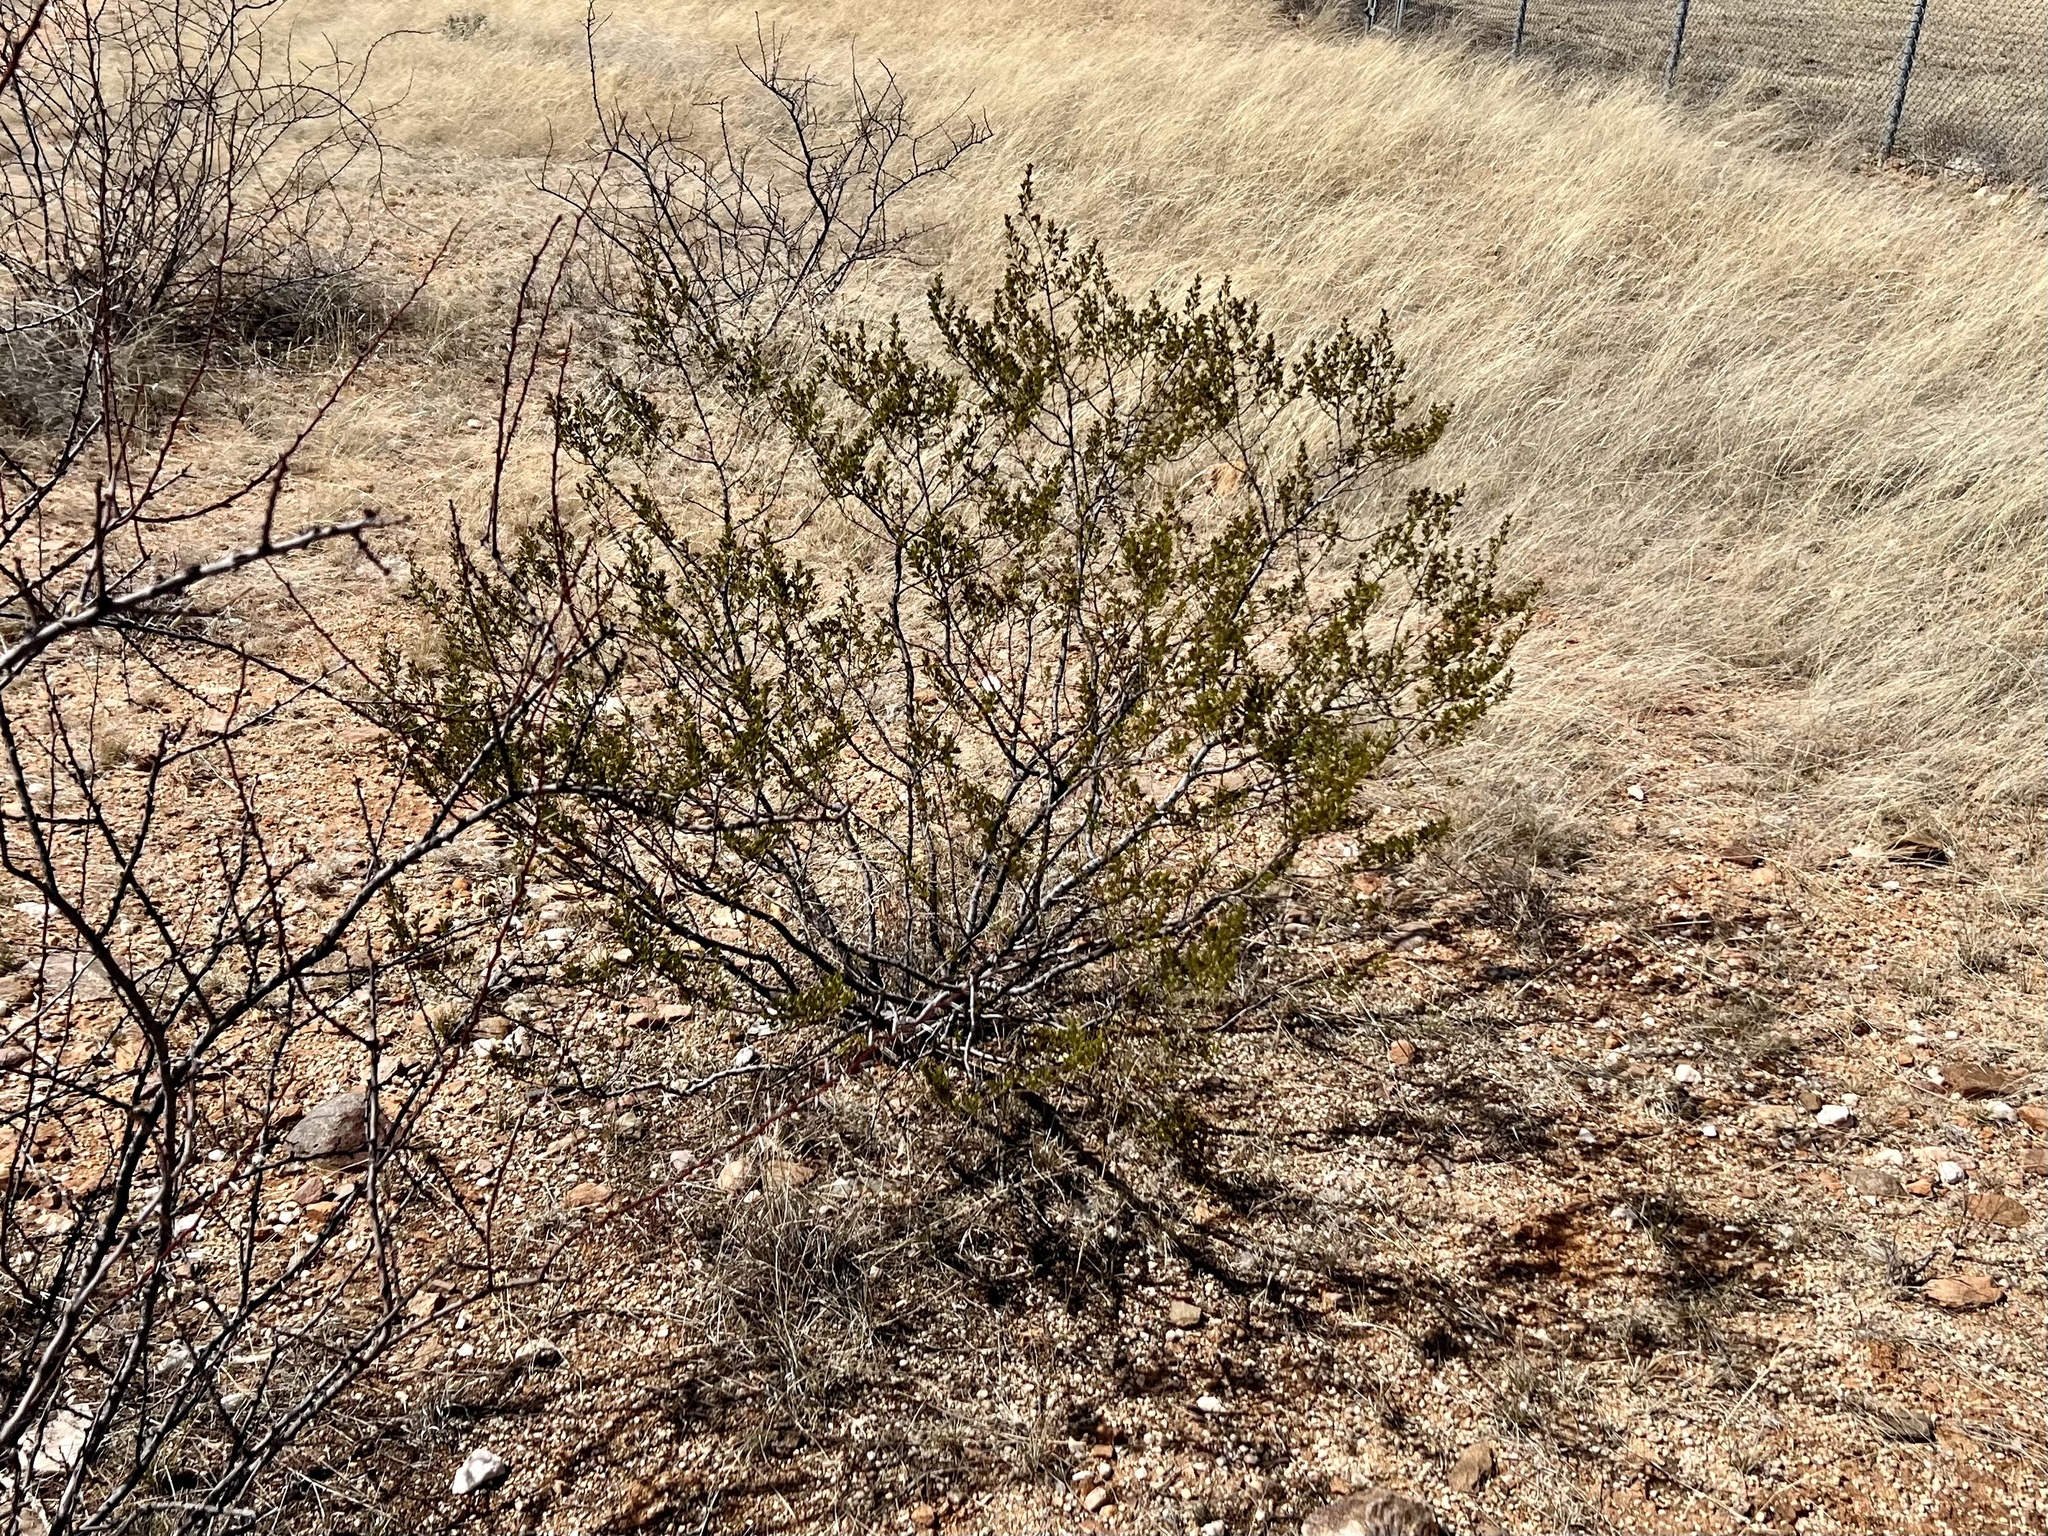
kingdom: Plantae
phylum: Tracheophyta
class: Magnoliopsida
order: Zygophyllales
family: Zygophyllaceae
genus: Larrea
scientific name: Larrea tridentata
